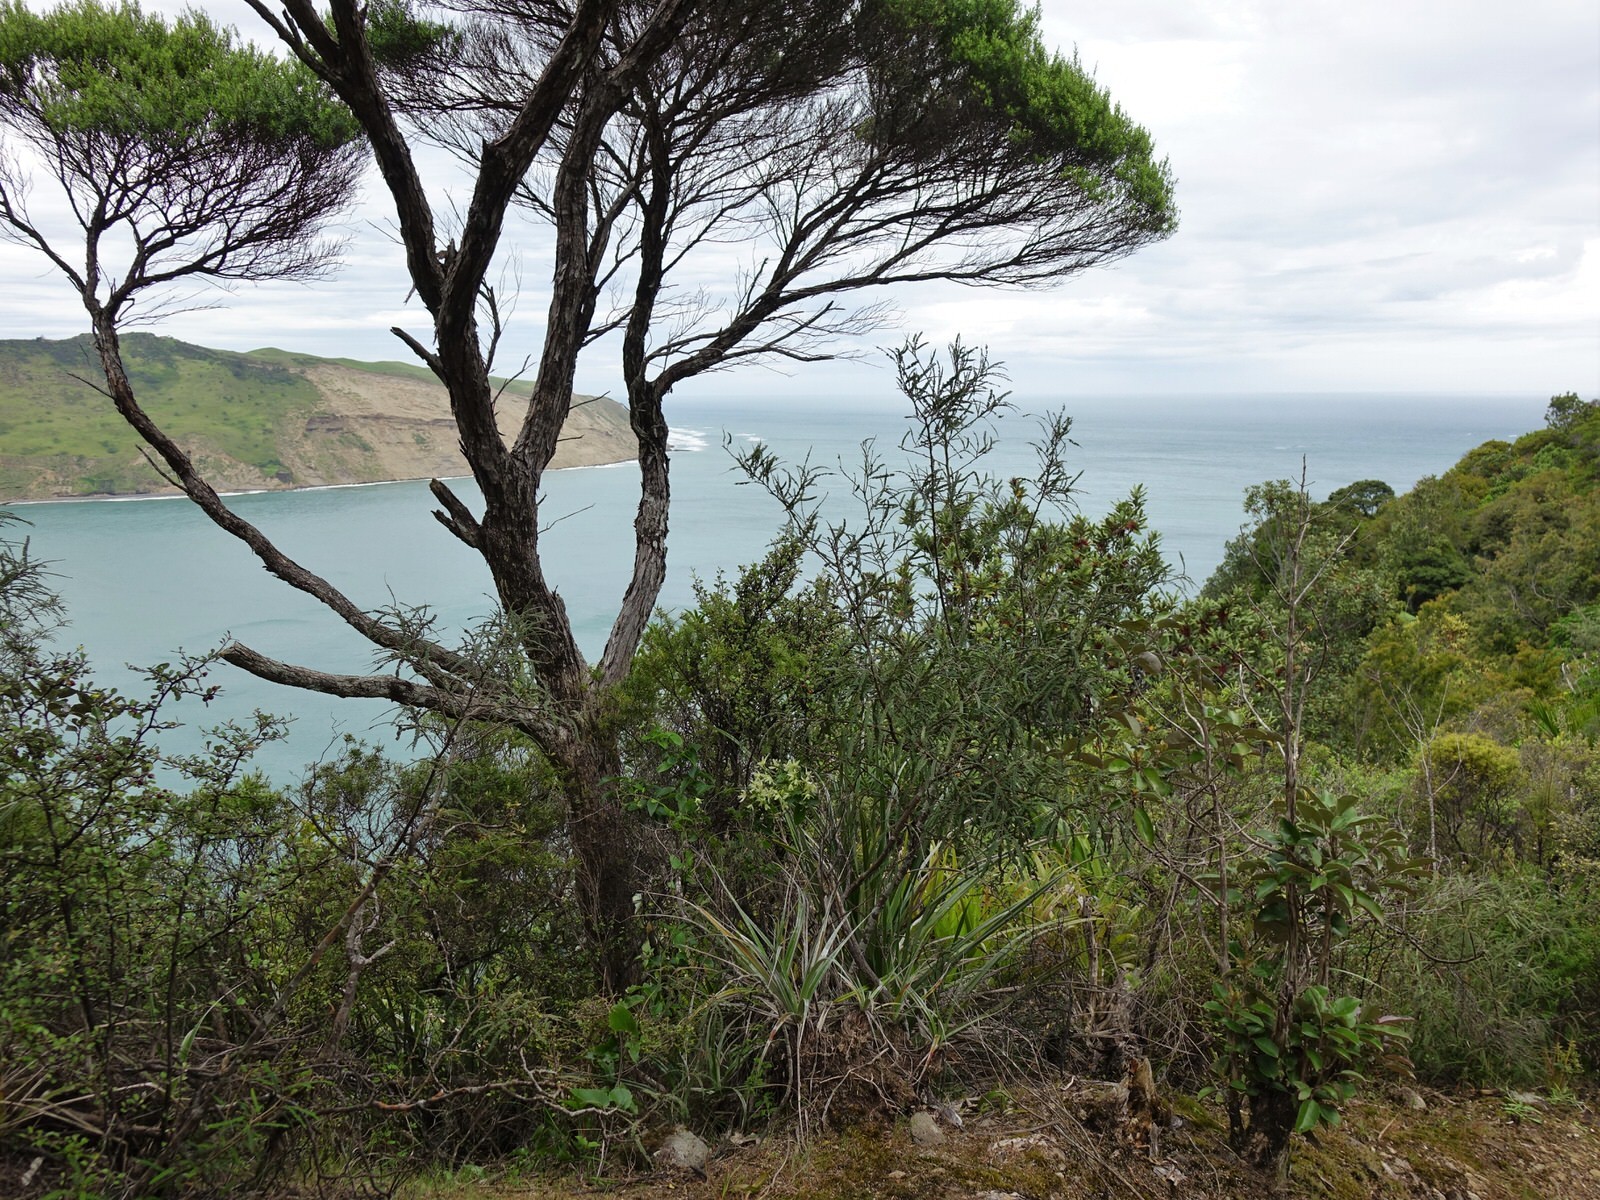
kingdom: Plantae
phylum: Tracheophyta
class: Magnoliopsida
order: Ranunculales
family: Ranunculaceae
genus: Clematis
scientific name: Clematis forsteri
